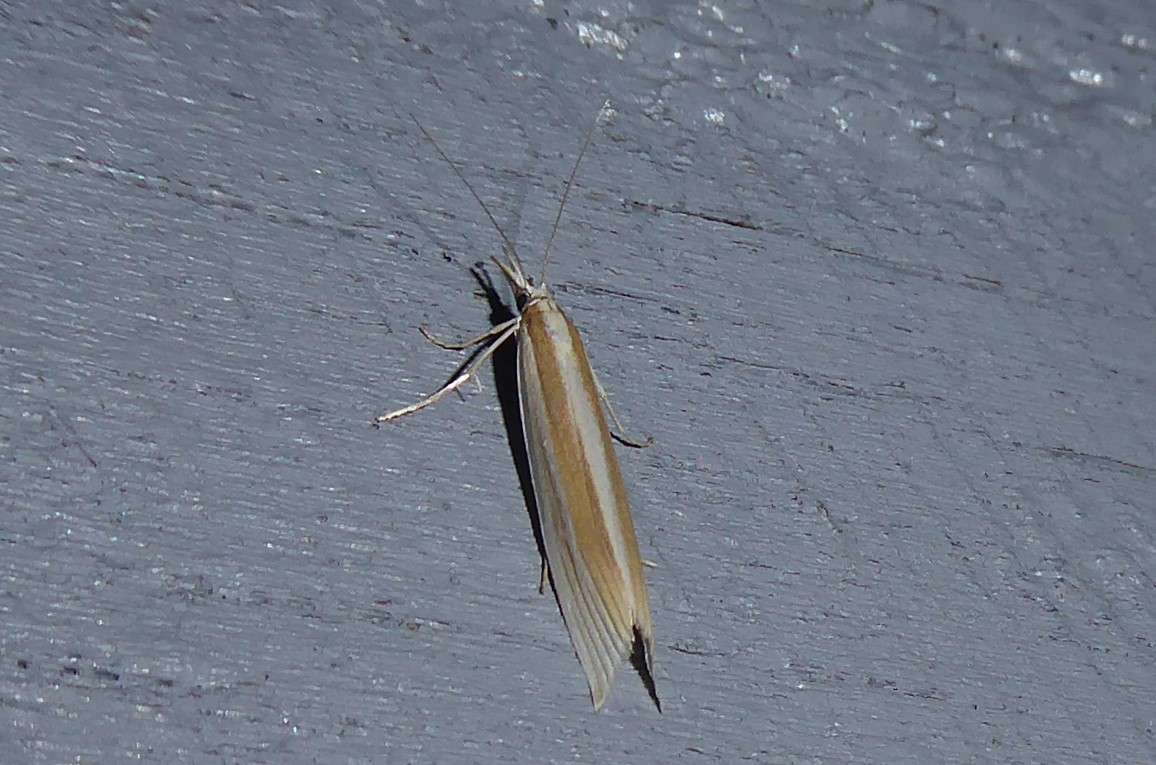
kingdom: Animalia
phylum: Arthropoda
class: Insecta
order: Lepidoptera
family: Crambidae
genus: Orocrambus
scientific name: Orocrambus angustipennis
